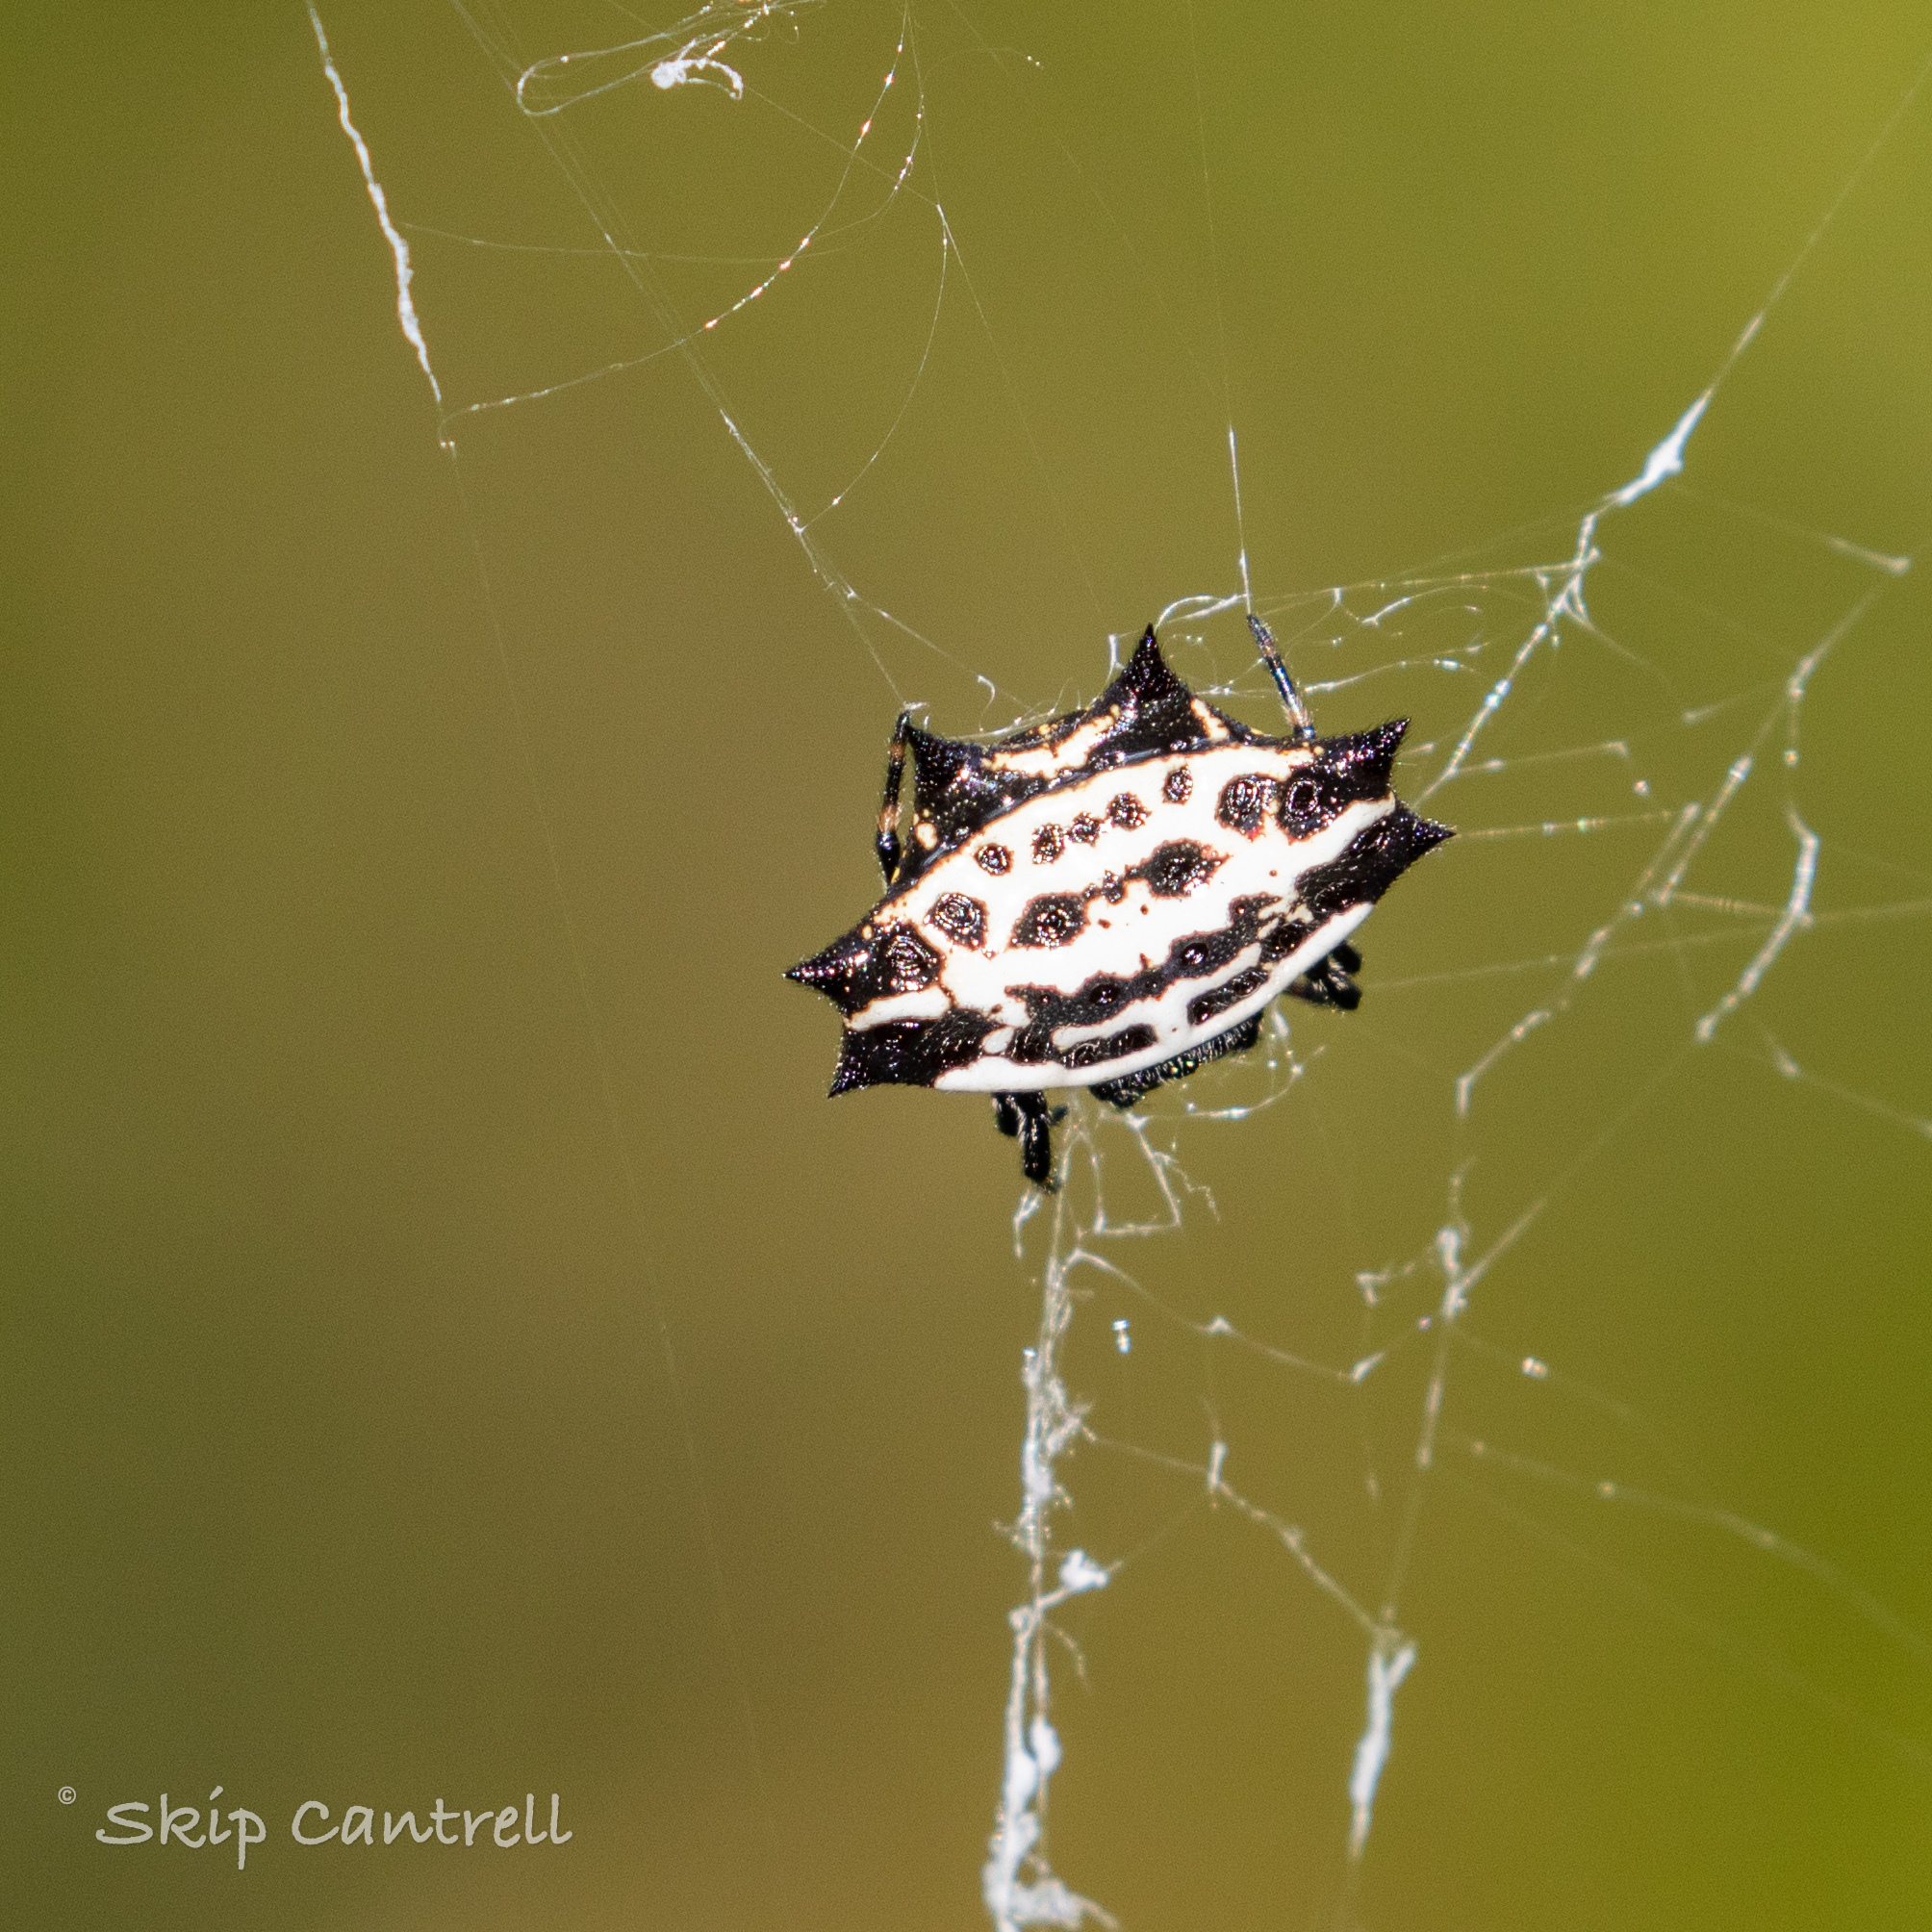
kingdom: Animalia
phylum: Arthropoda
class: Arachnida
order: Araneae
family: Araneidae
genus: Gasteracantha
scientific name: Gasteracantha cancriformis
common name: Orb weavers
